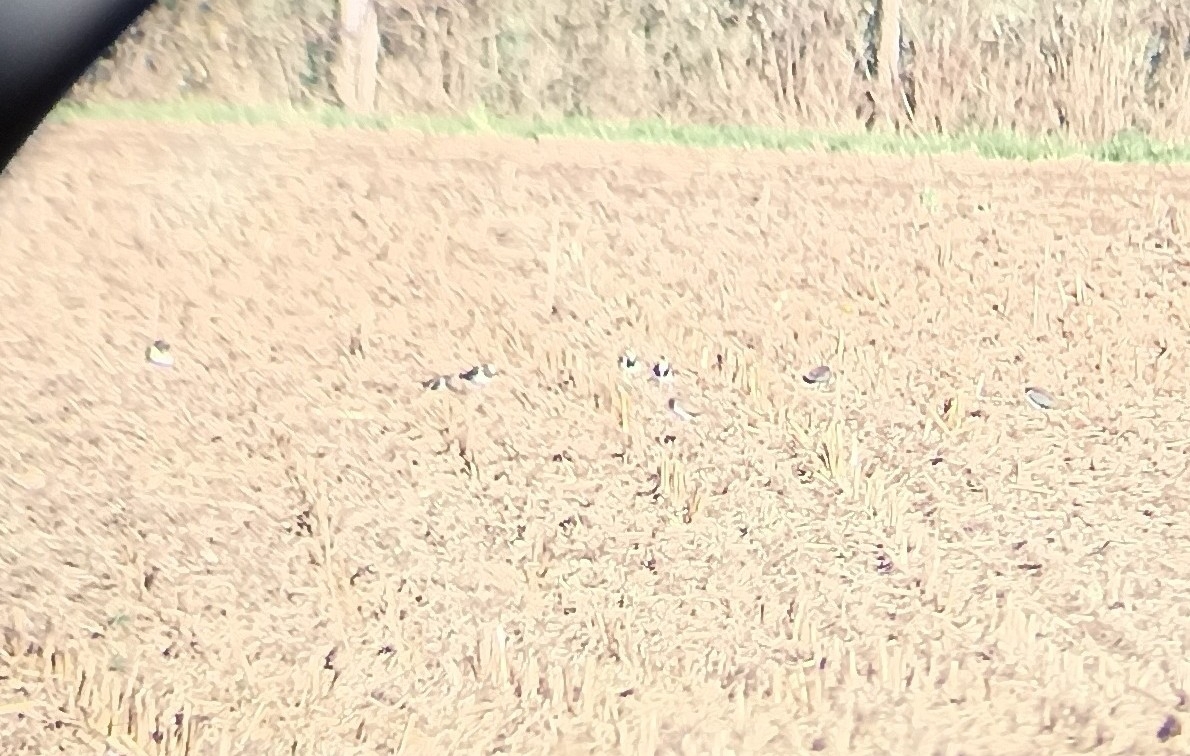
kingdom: Animalia
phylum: Chordata
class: Aves
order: Charadriiformes
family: Charadriidae
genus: Vanellus
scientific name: Vanellus vanellus
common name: Northern lapwing
